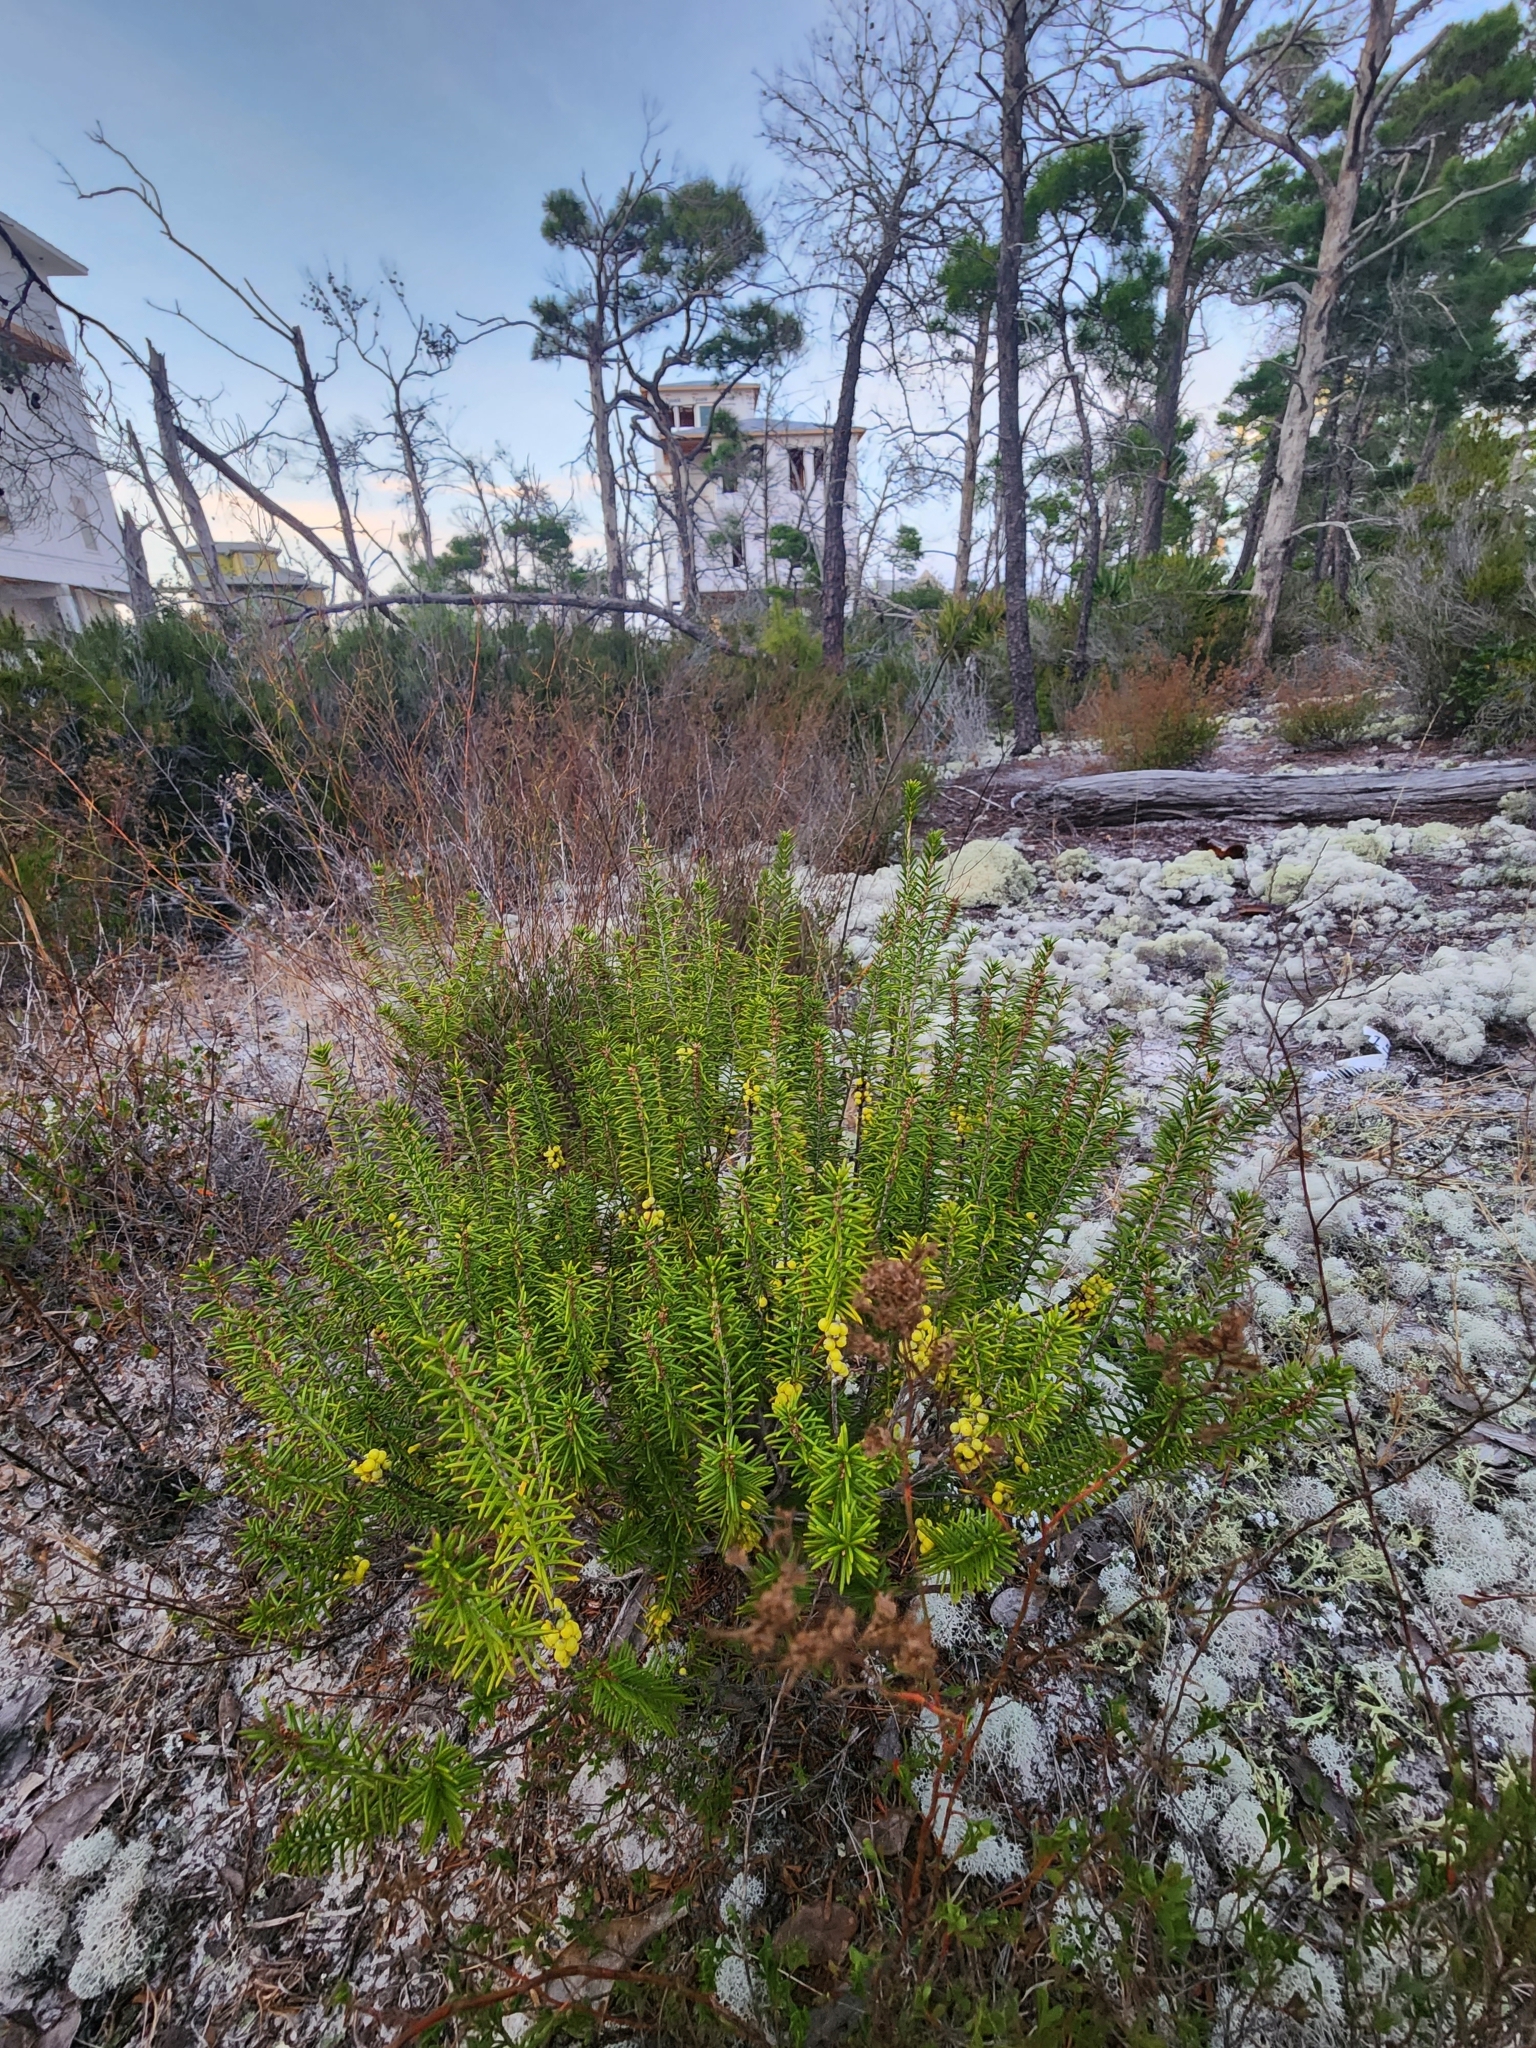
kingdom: Plantae
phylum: Tracheophyta
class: Magnoliopsida
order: Ericales
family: Ericaceae
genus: Ceratiola
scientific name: Ceratiola ericoides
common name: Sandhill-rosemary
